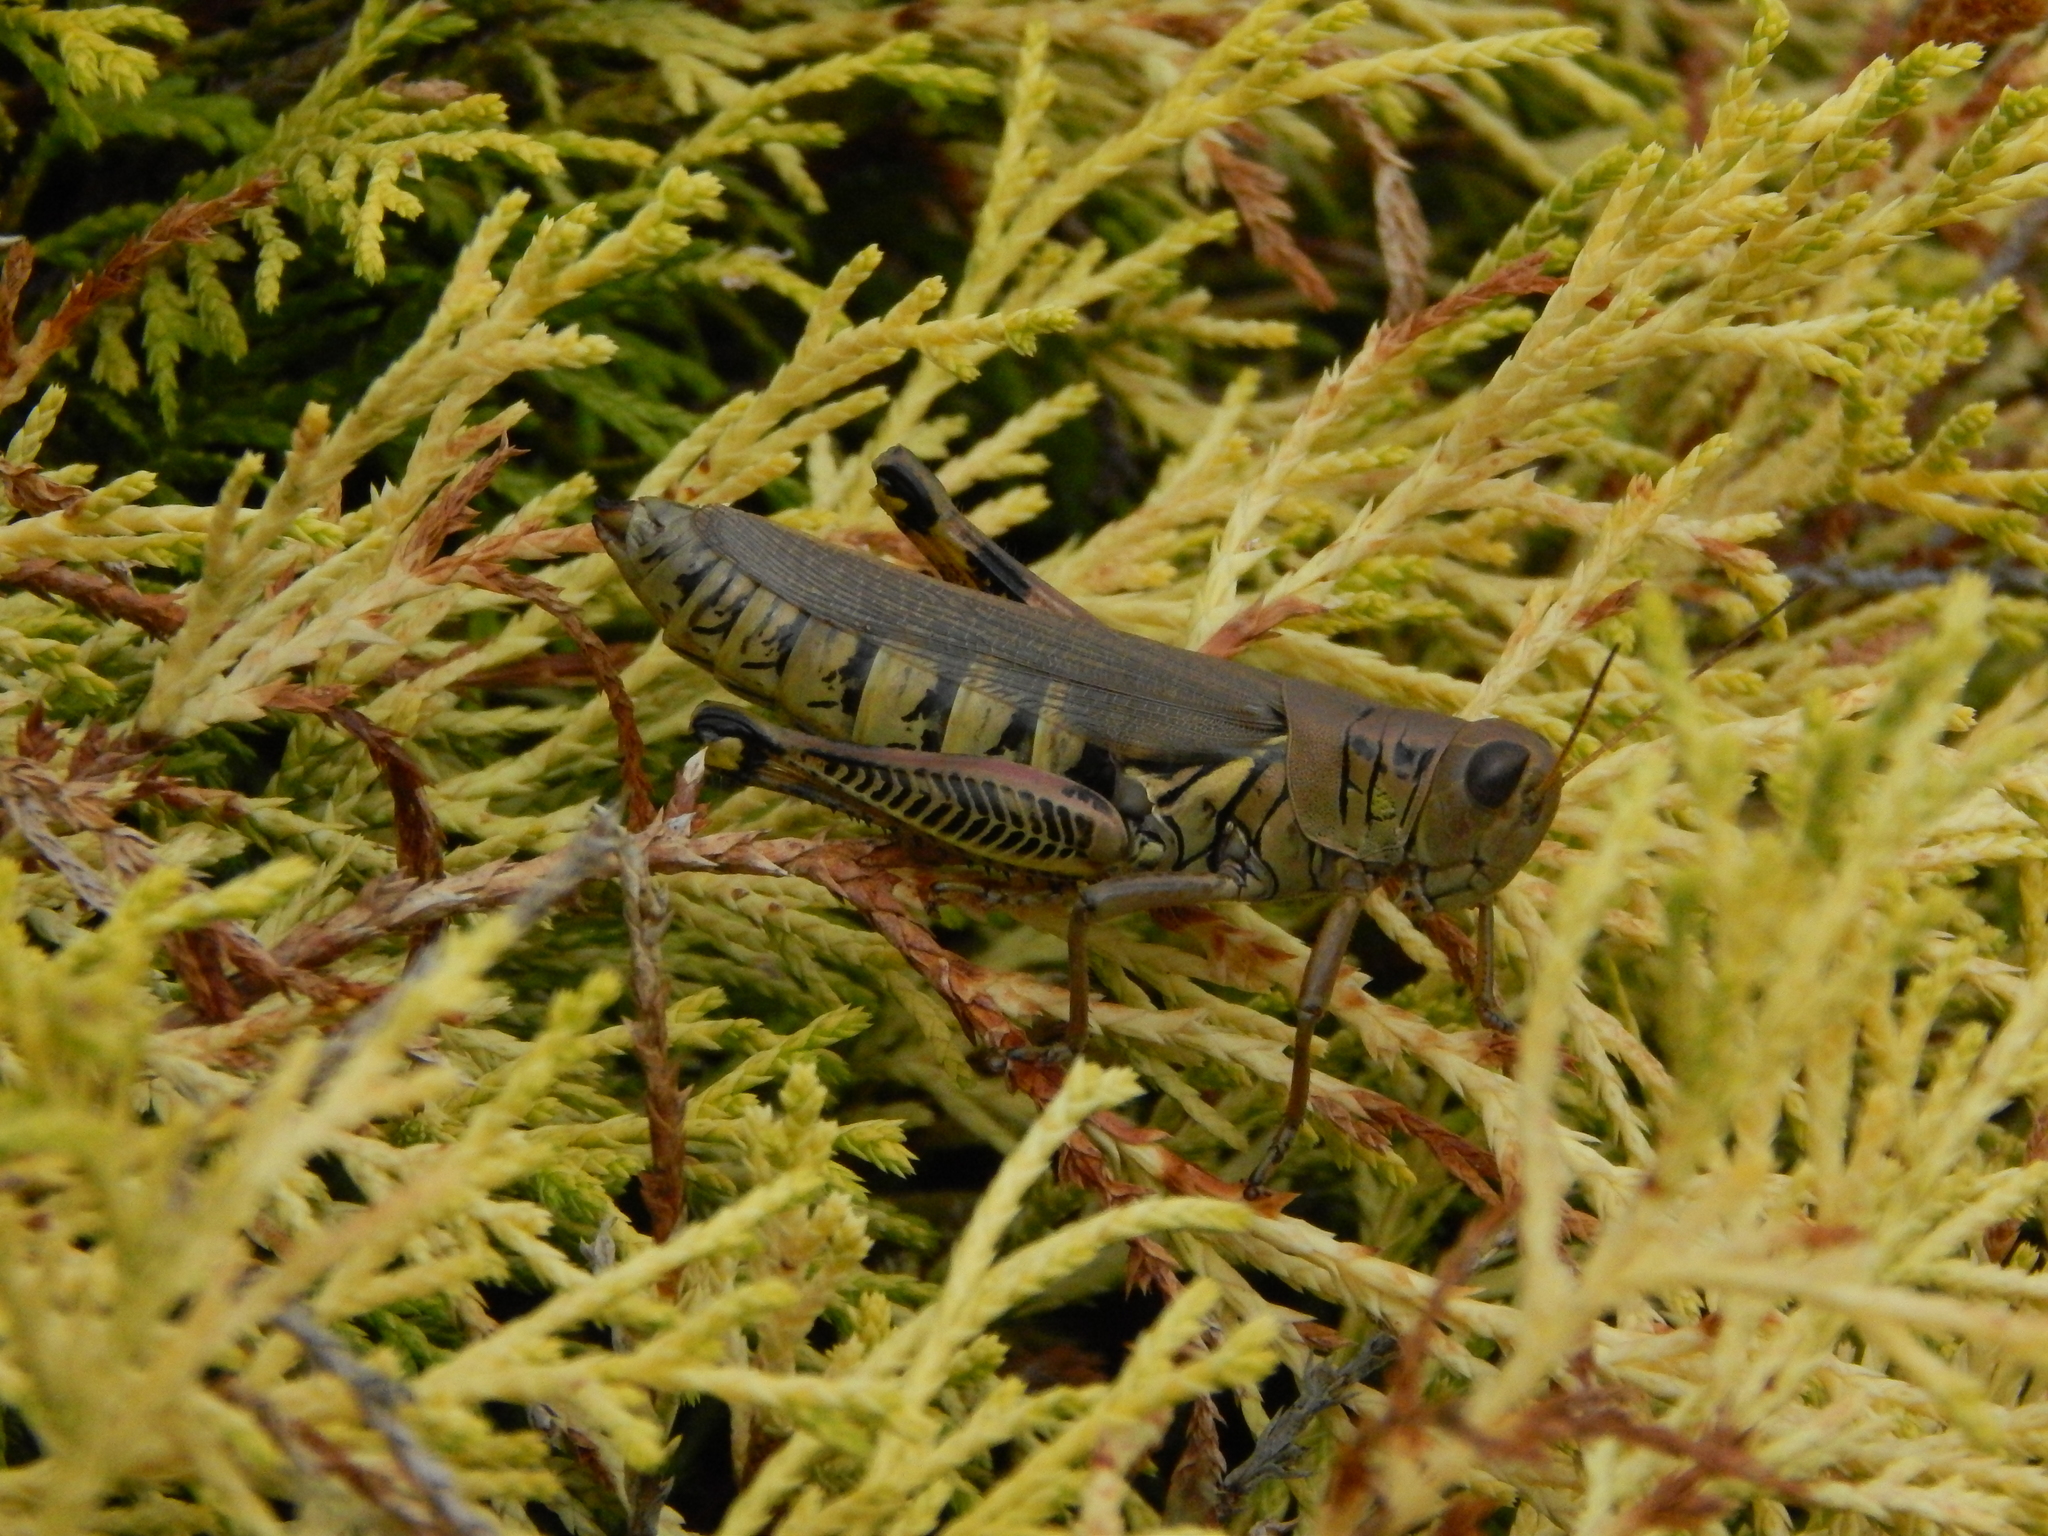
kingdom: Animalia
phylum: Arthropoda
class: Insecta
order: Orthoptera
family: Acrididae
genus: Melanoplus
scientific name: Melanoplus differentialis
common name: Differential grasshopper
